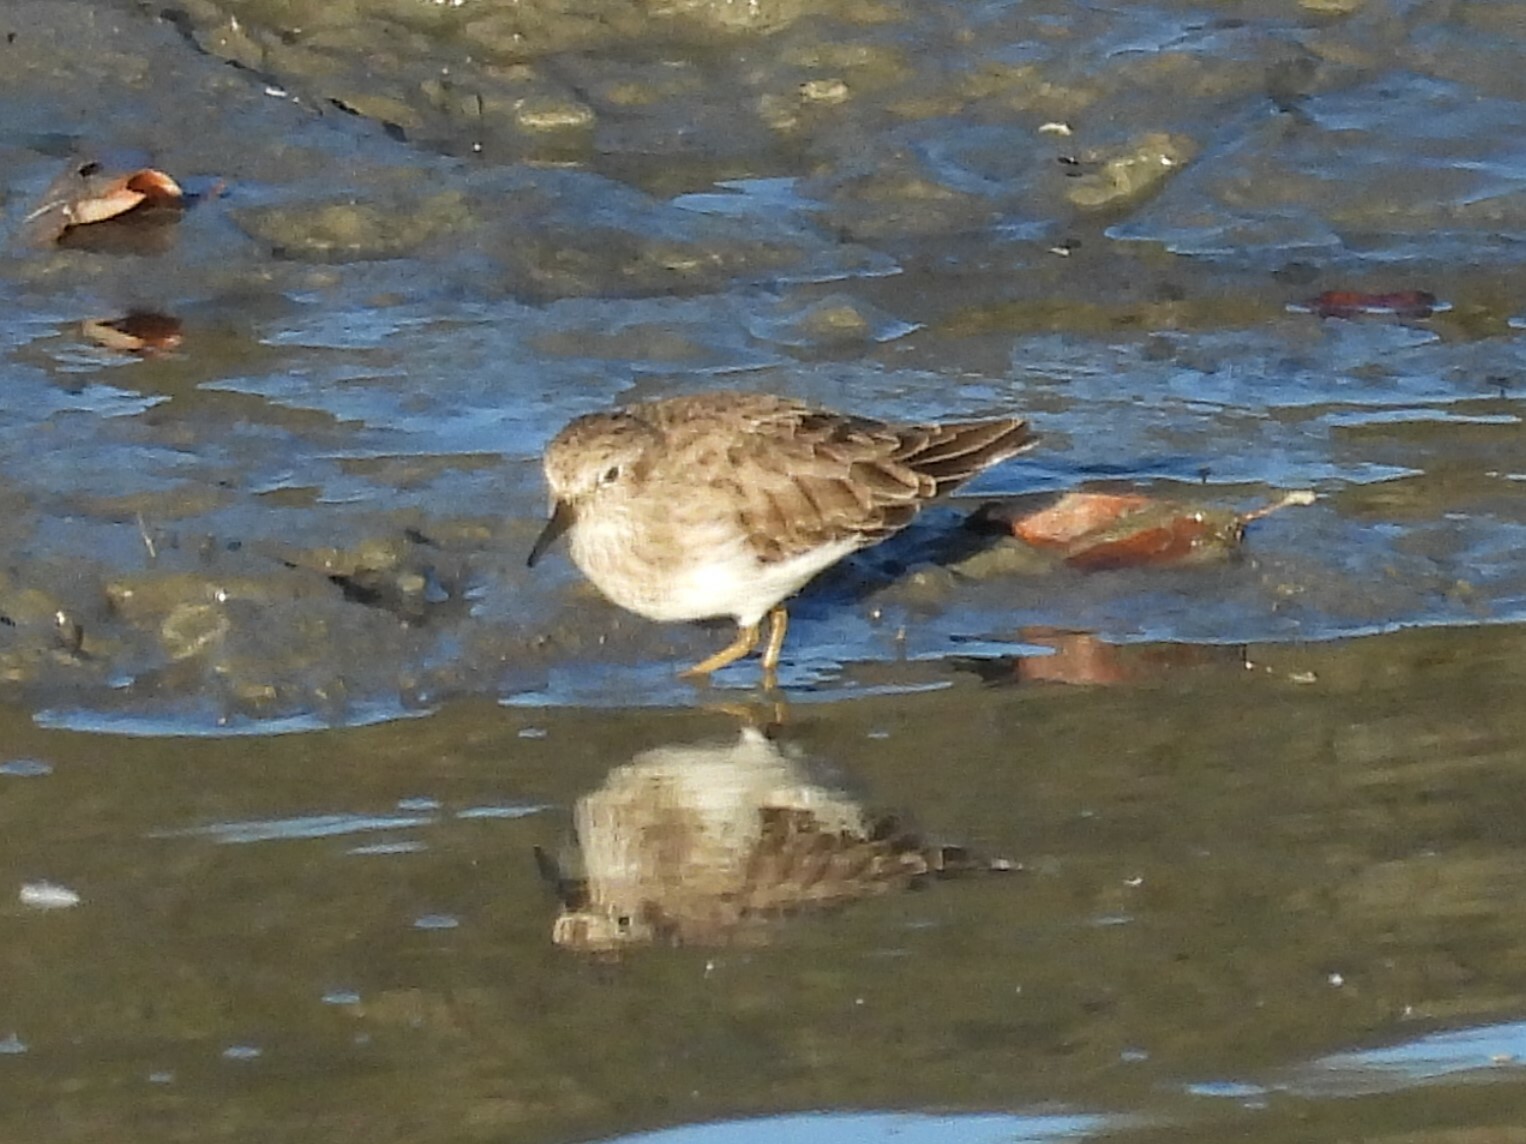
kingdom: Animalia
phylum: Chordata
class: Aves
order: Charadriiformes
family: Scolopacidae
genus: Calidris
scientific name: Calidris minutilla
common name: Least sandpiper
